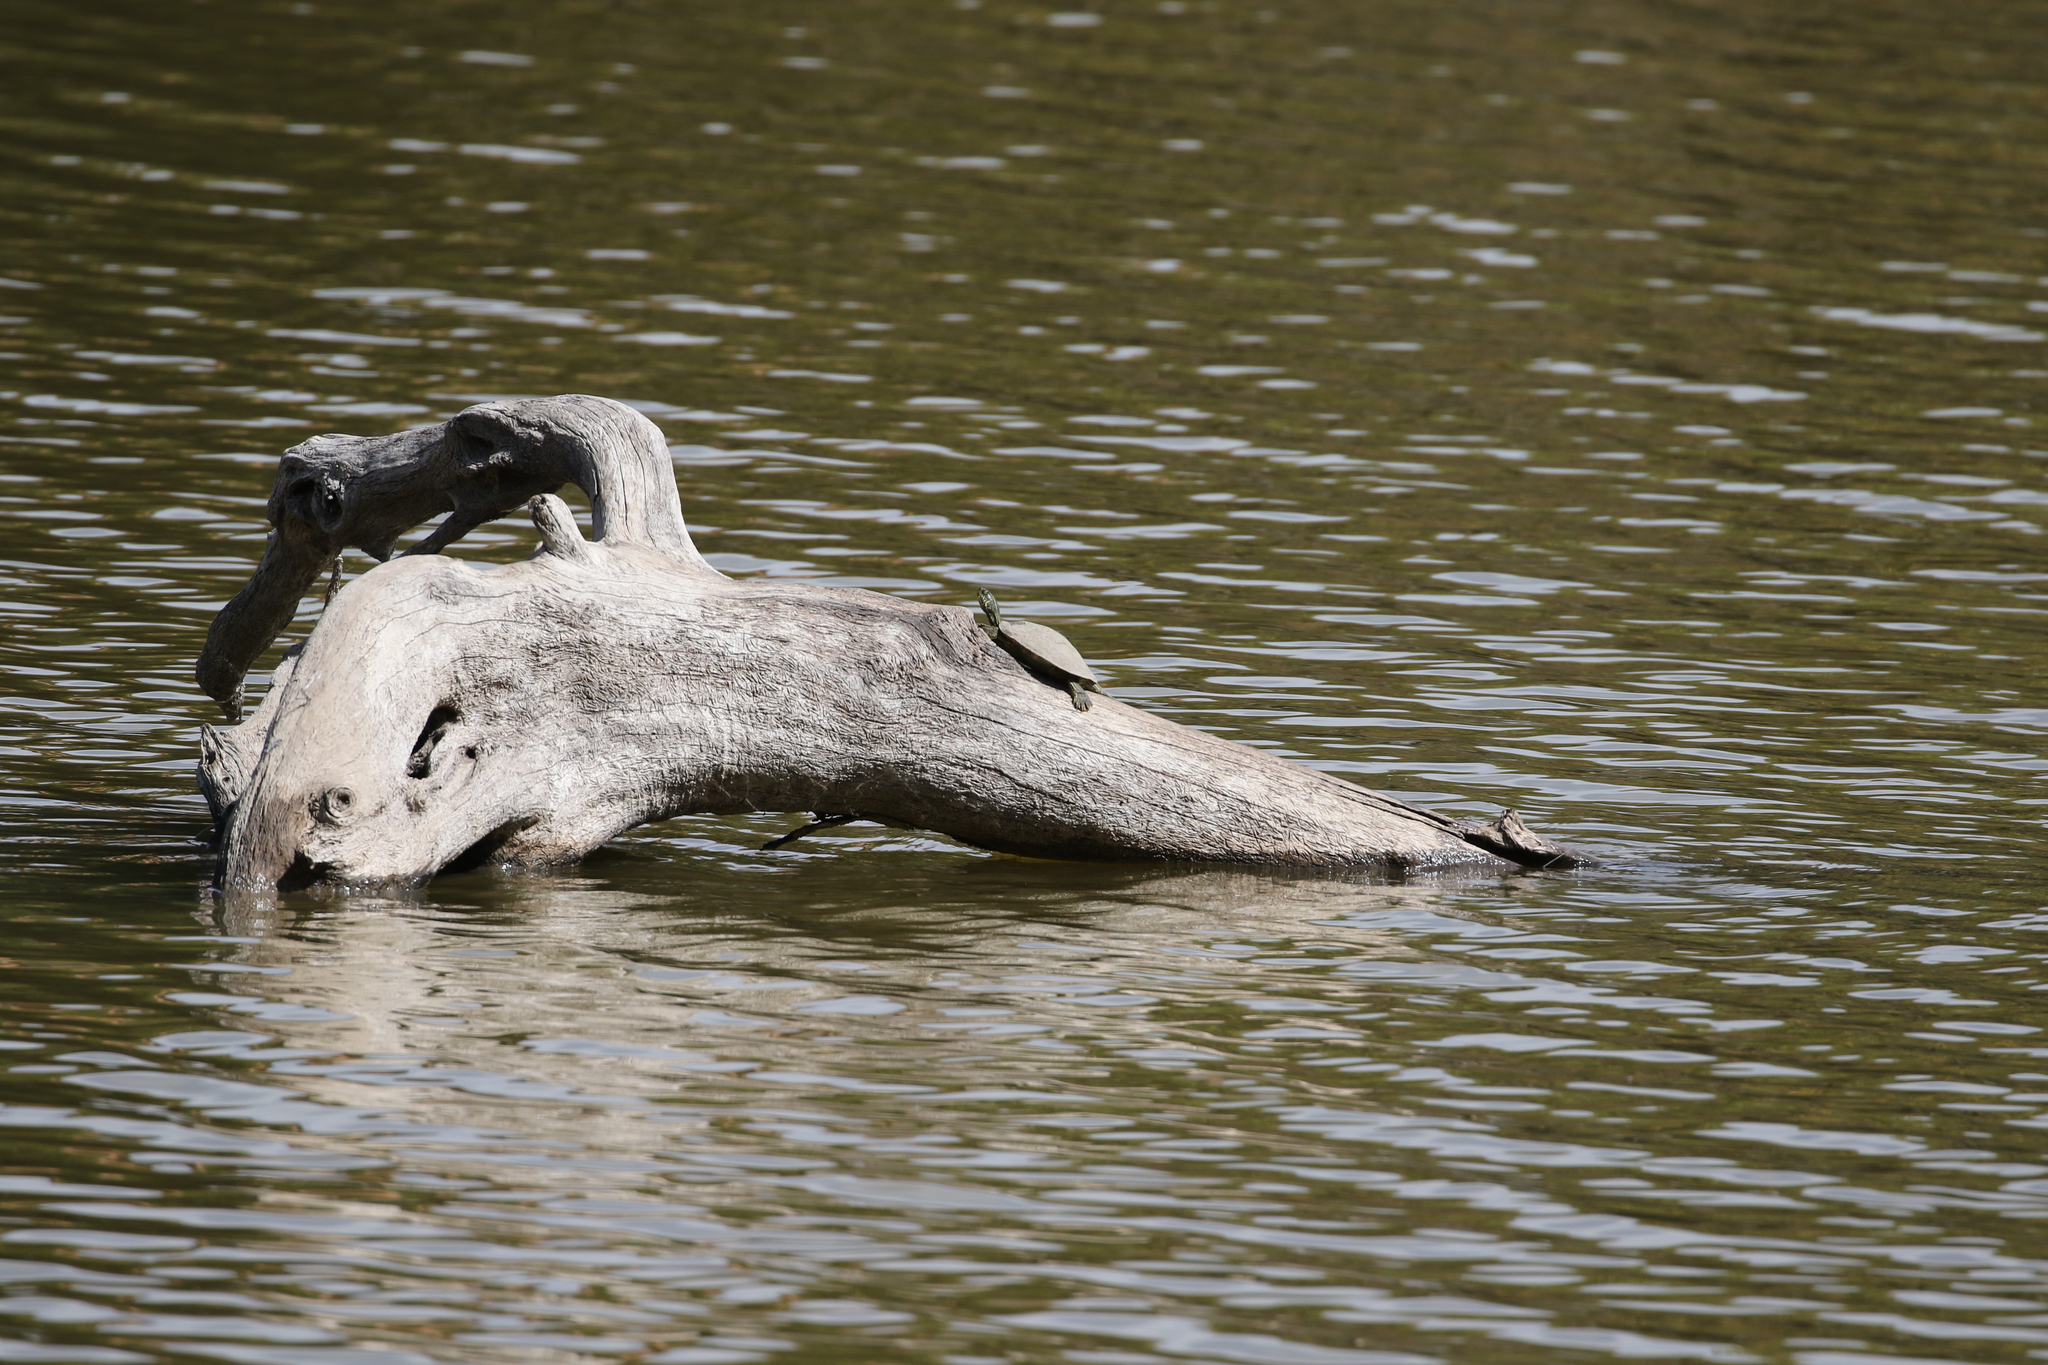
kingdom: Animalia
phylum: Chordata
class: Testudines
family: Emydidae
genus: Pseudemys
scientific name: Pseudemys texana
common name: Texas river cooter
